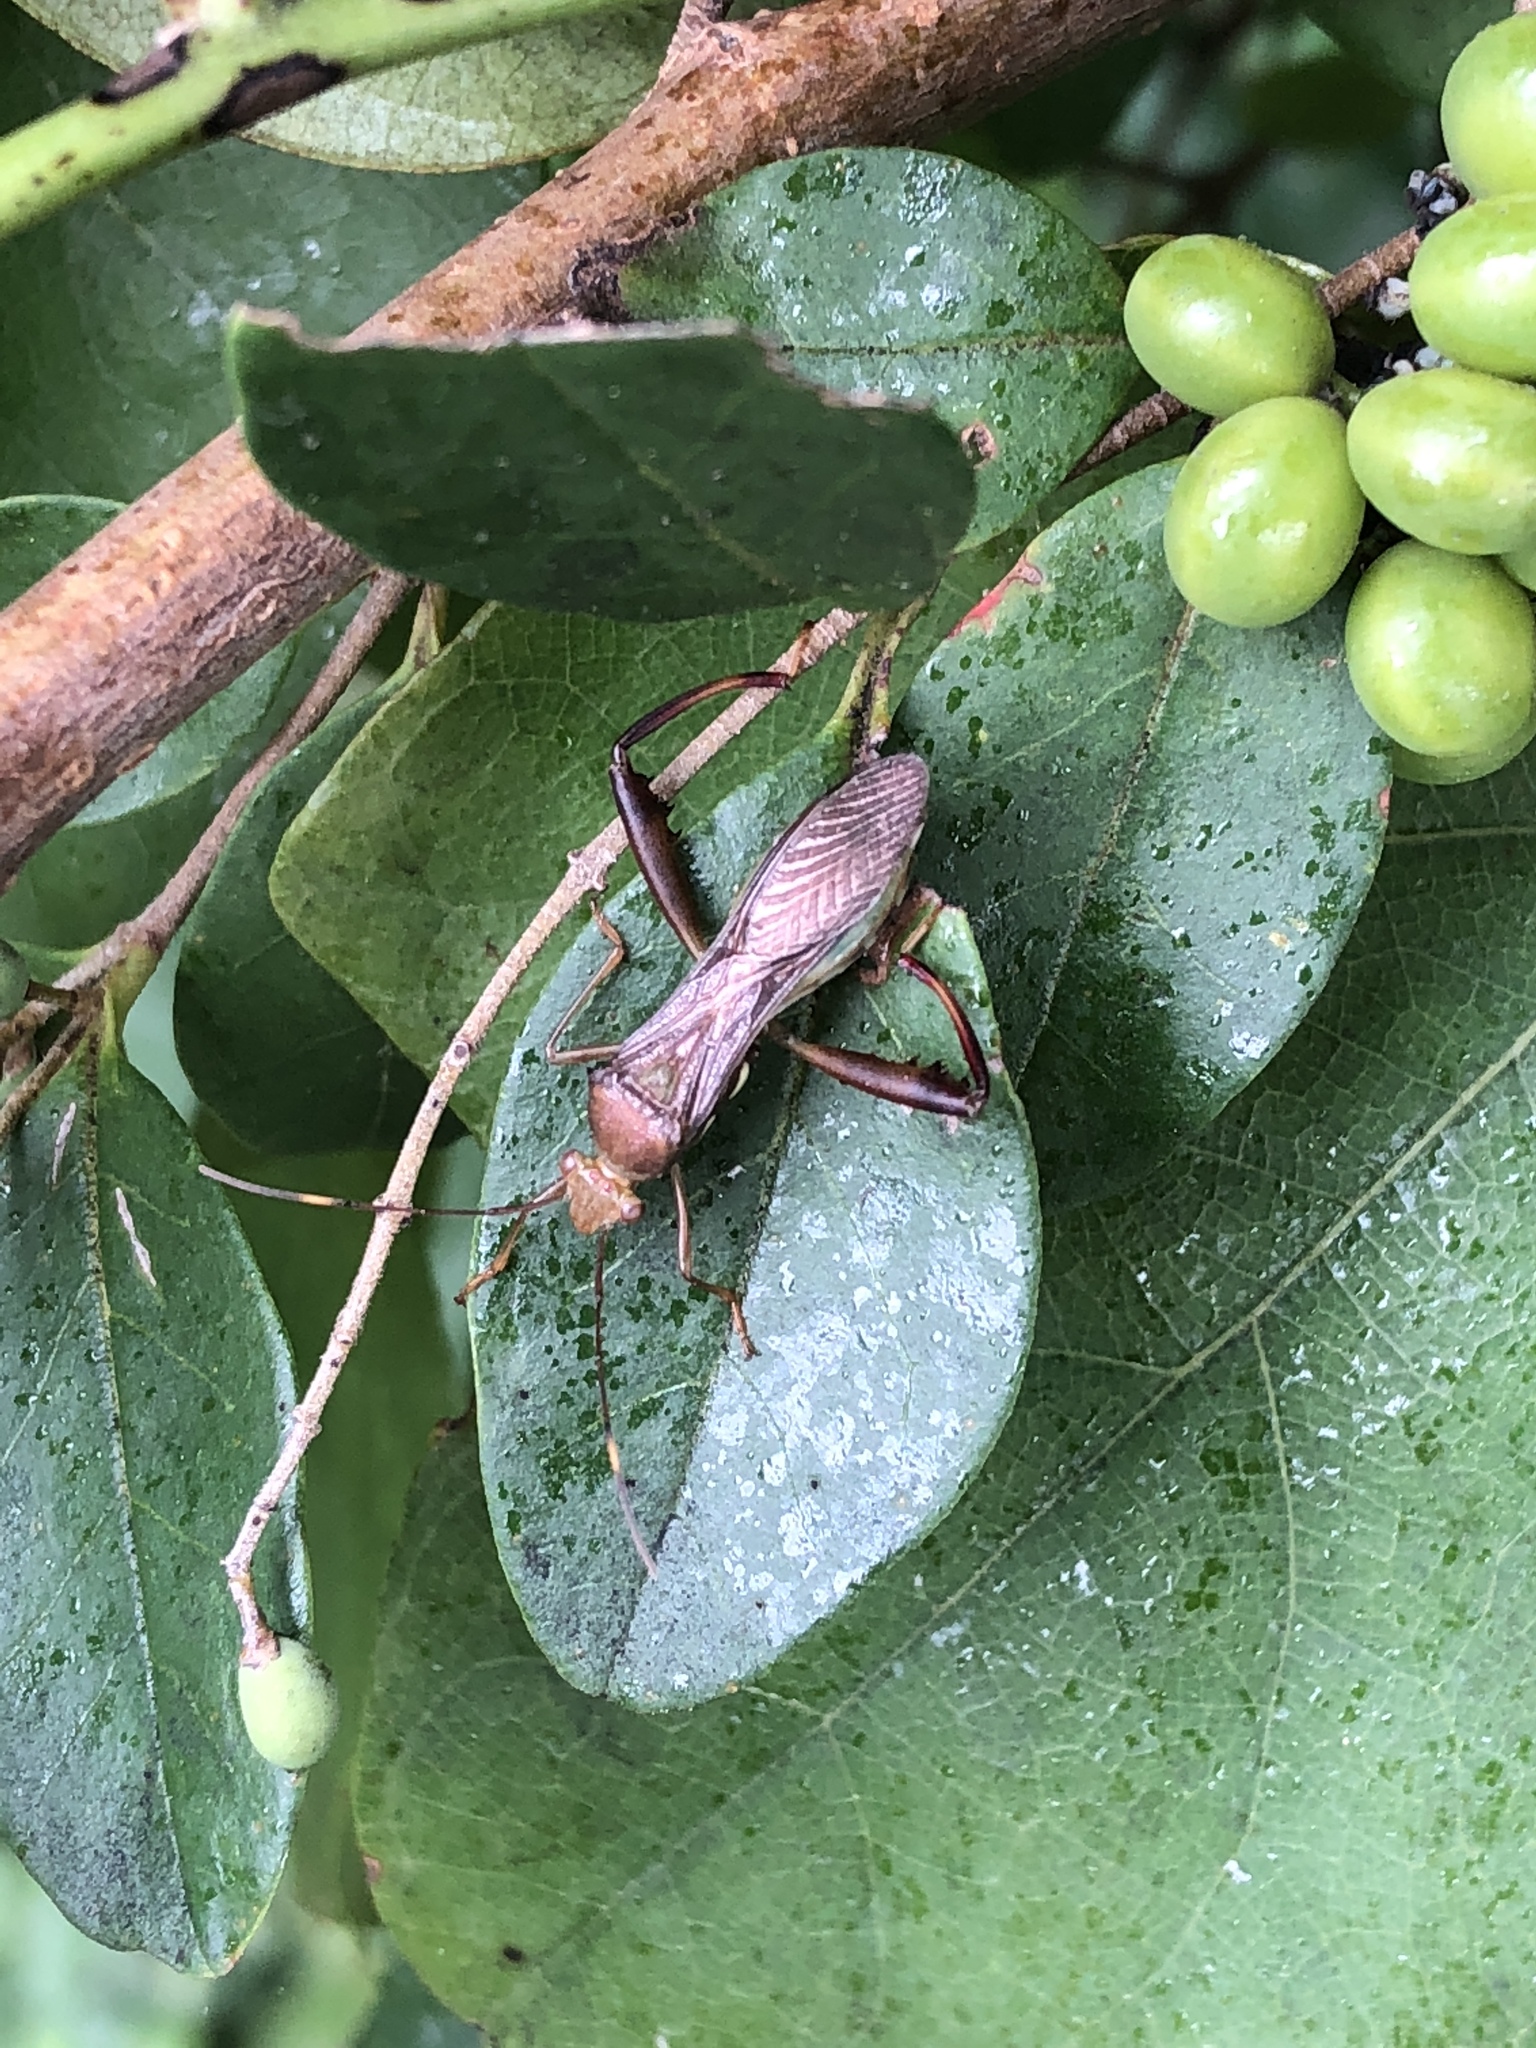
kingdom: Animalia
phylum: Arthropoda
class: Insecta
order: Hemiptera
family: Alydidae
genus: Hyalymenus
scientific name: Hyalymenus tarsatus
